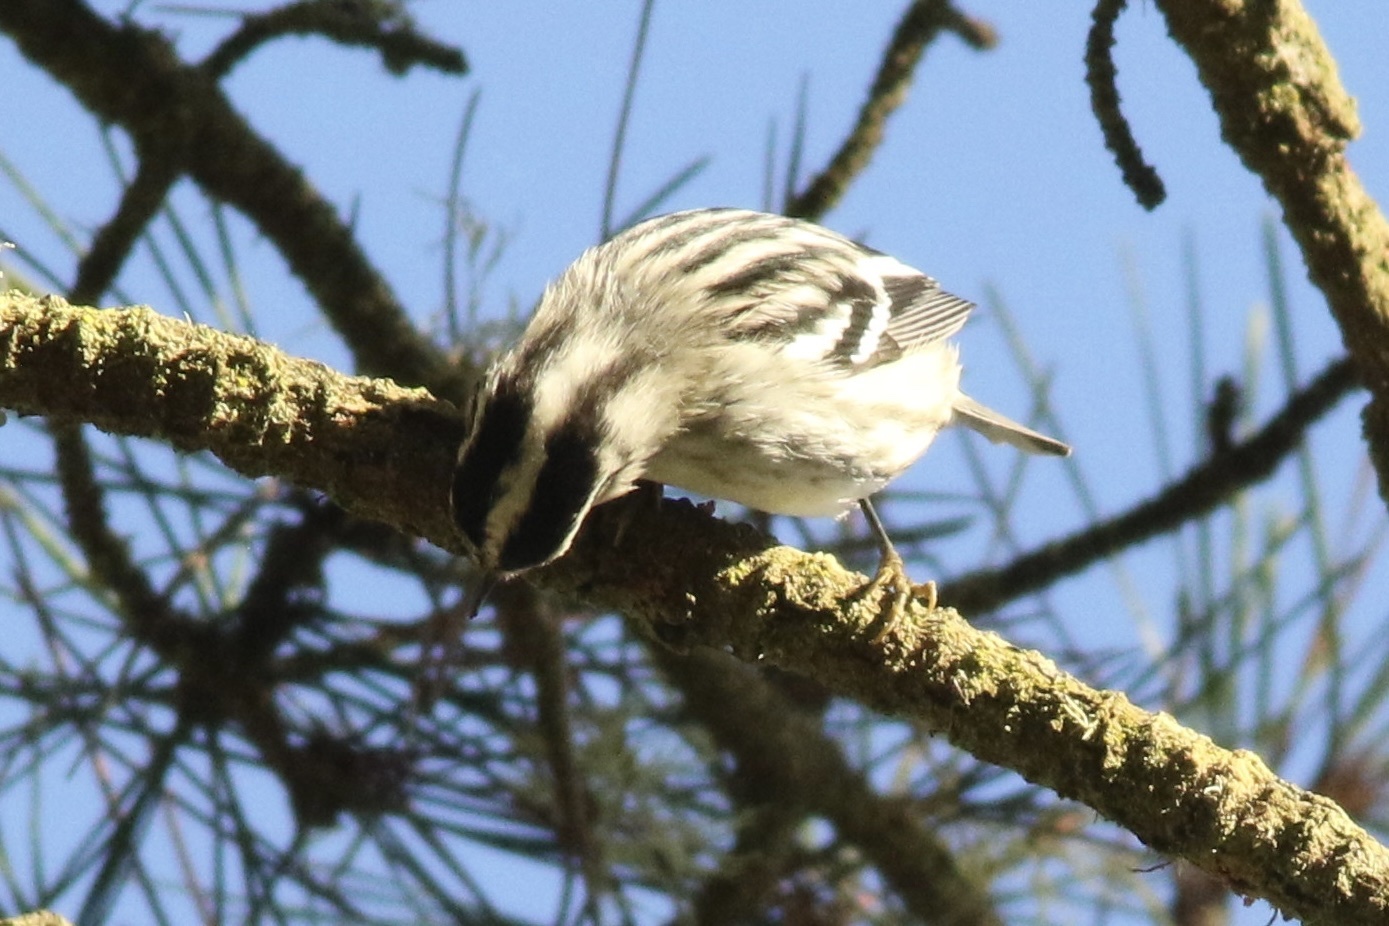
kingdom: Animalia
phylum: Chordata
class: Aves
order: Passeriformes
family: Parulidae
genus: Mniotilta
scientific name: Mniotilta varia
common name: Black-and-white warbler
